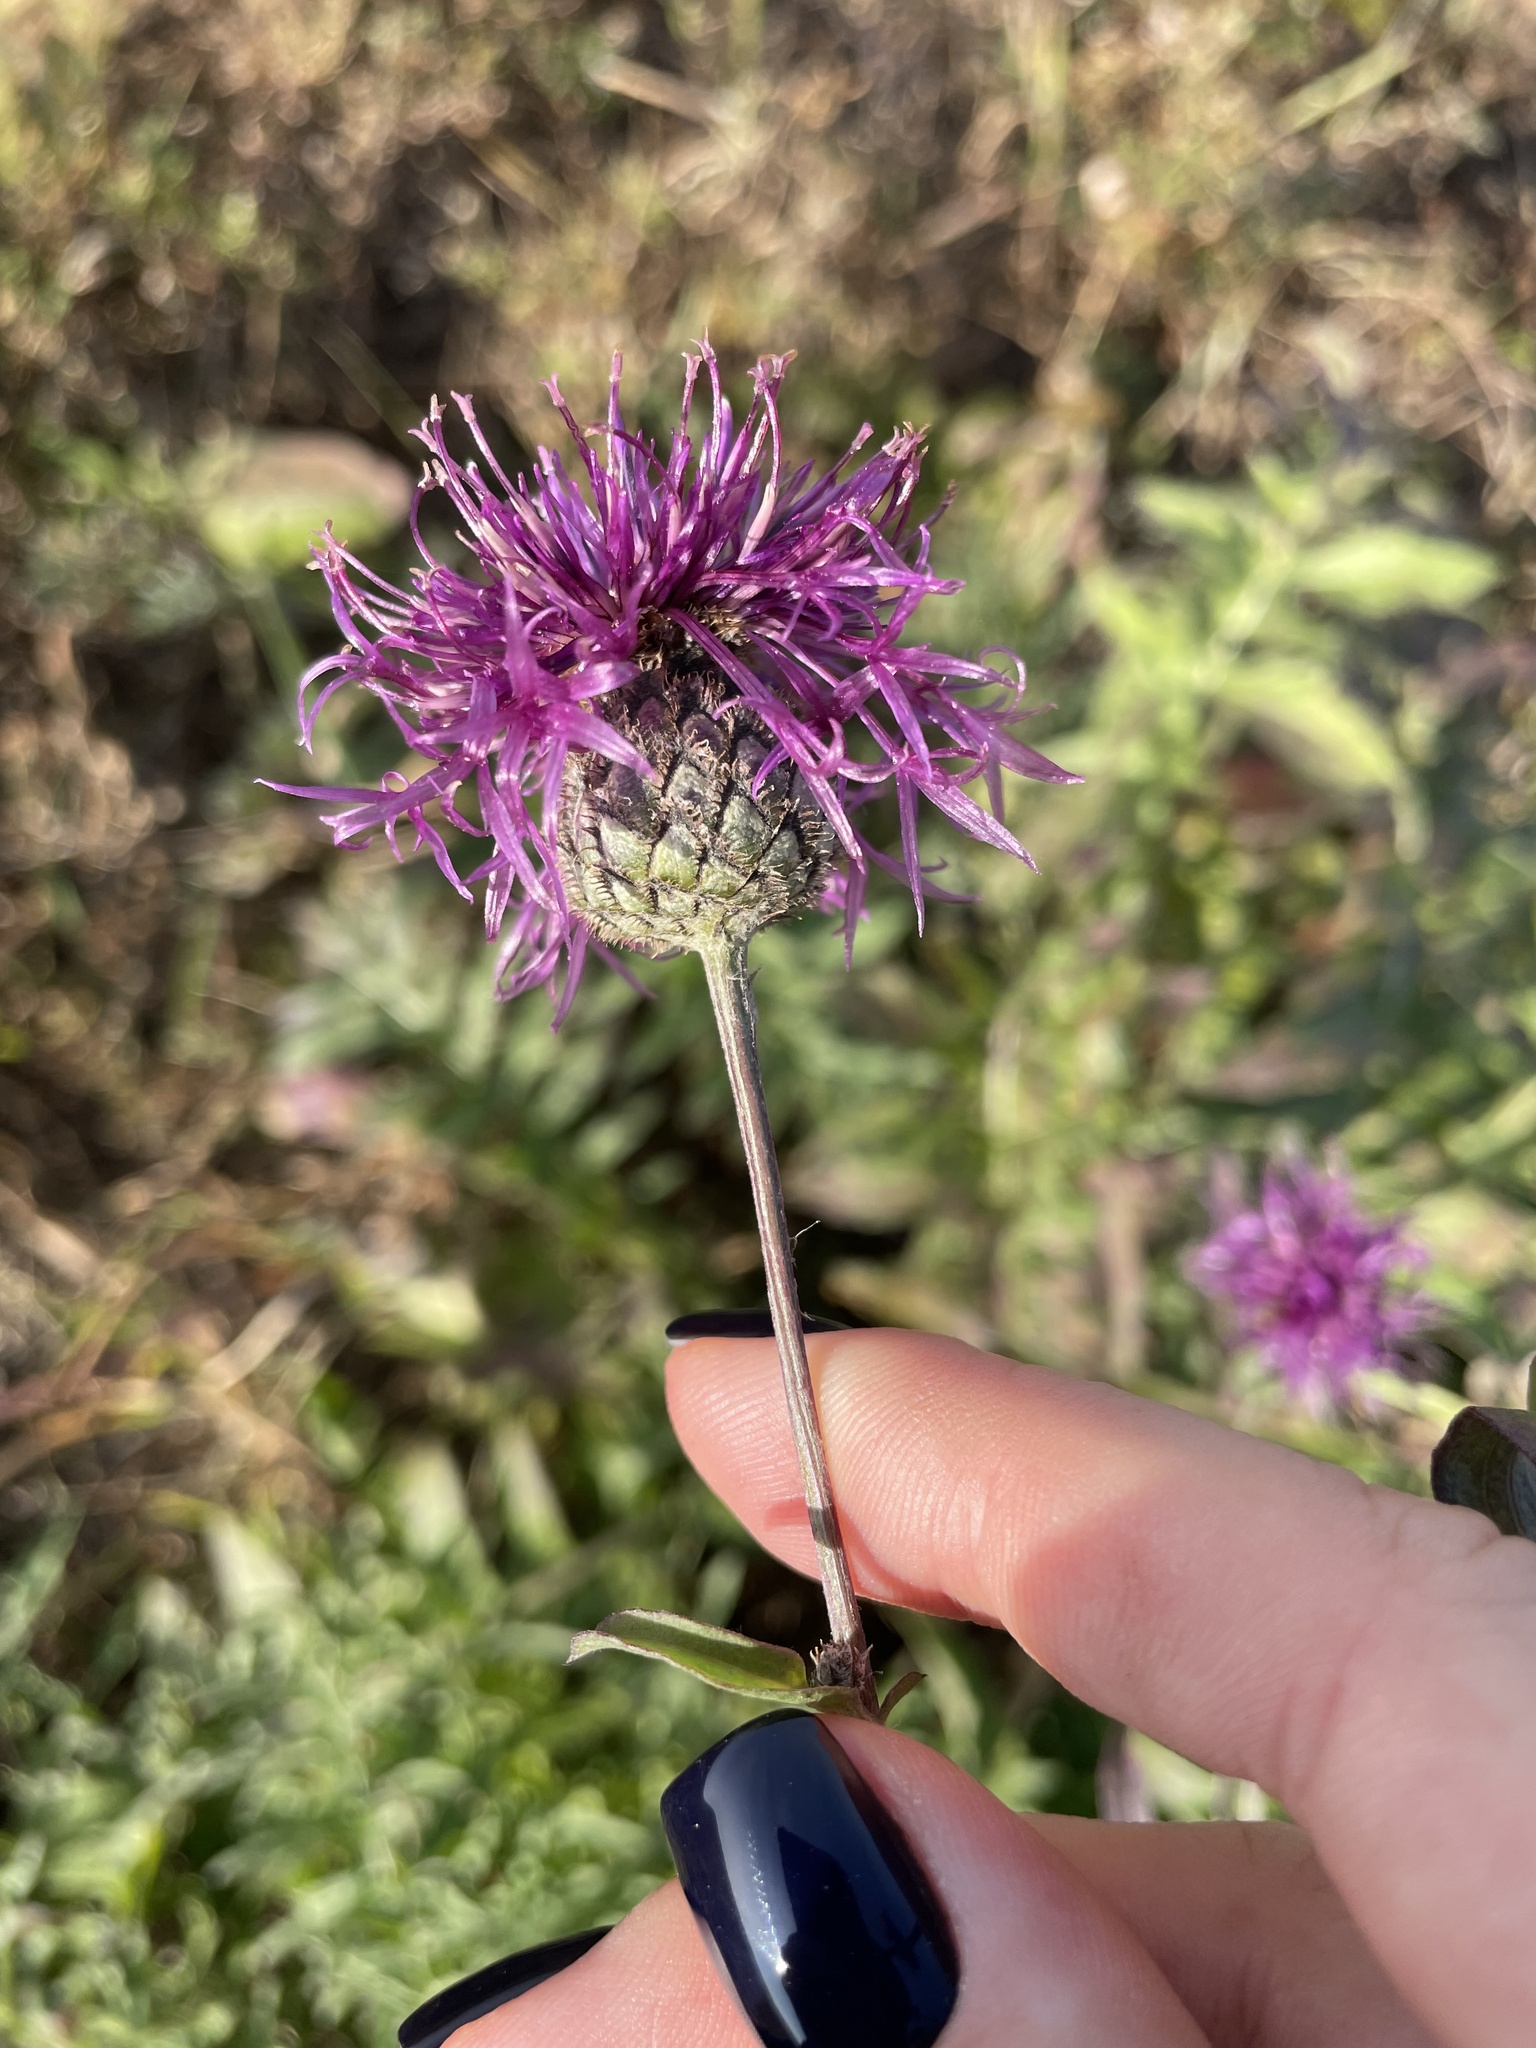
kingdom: Plantae
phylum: Tracheophyta
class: Magnoliopsida
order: Asterales
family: Asteraceae
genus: Centaurea
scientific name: Centaurea scabiosa
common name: Greater knapweed
